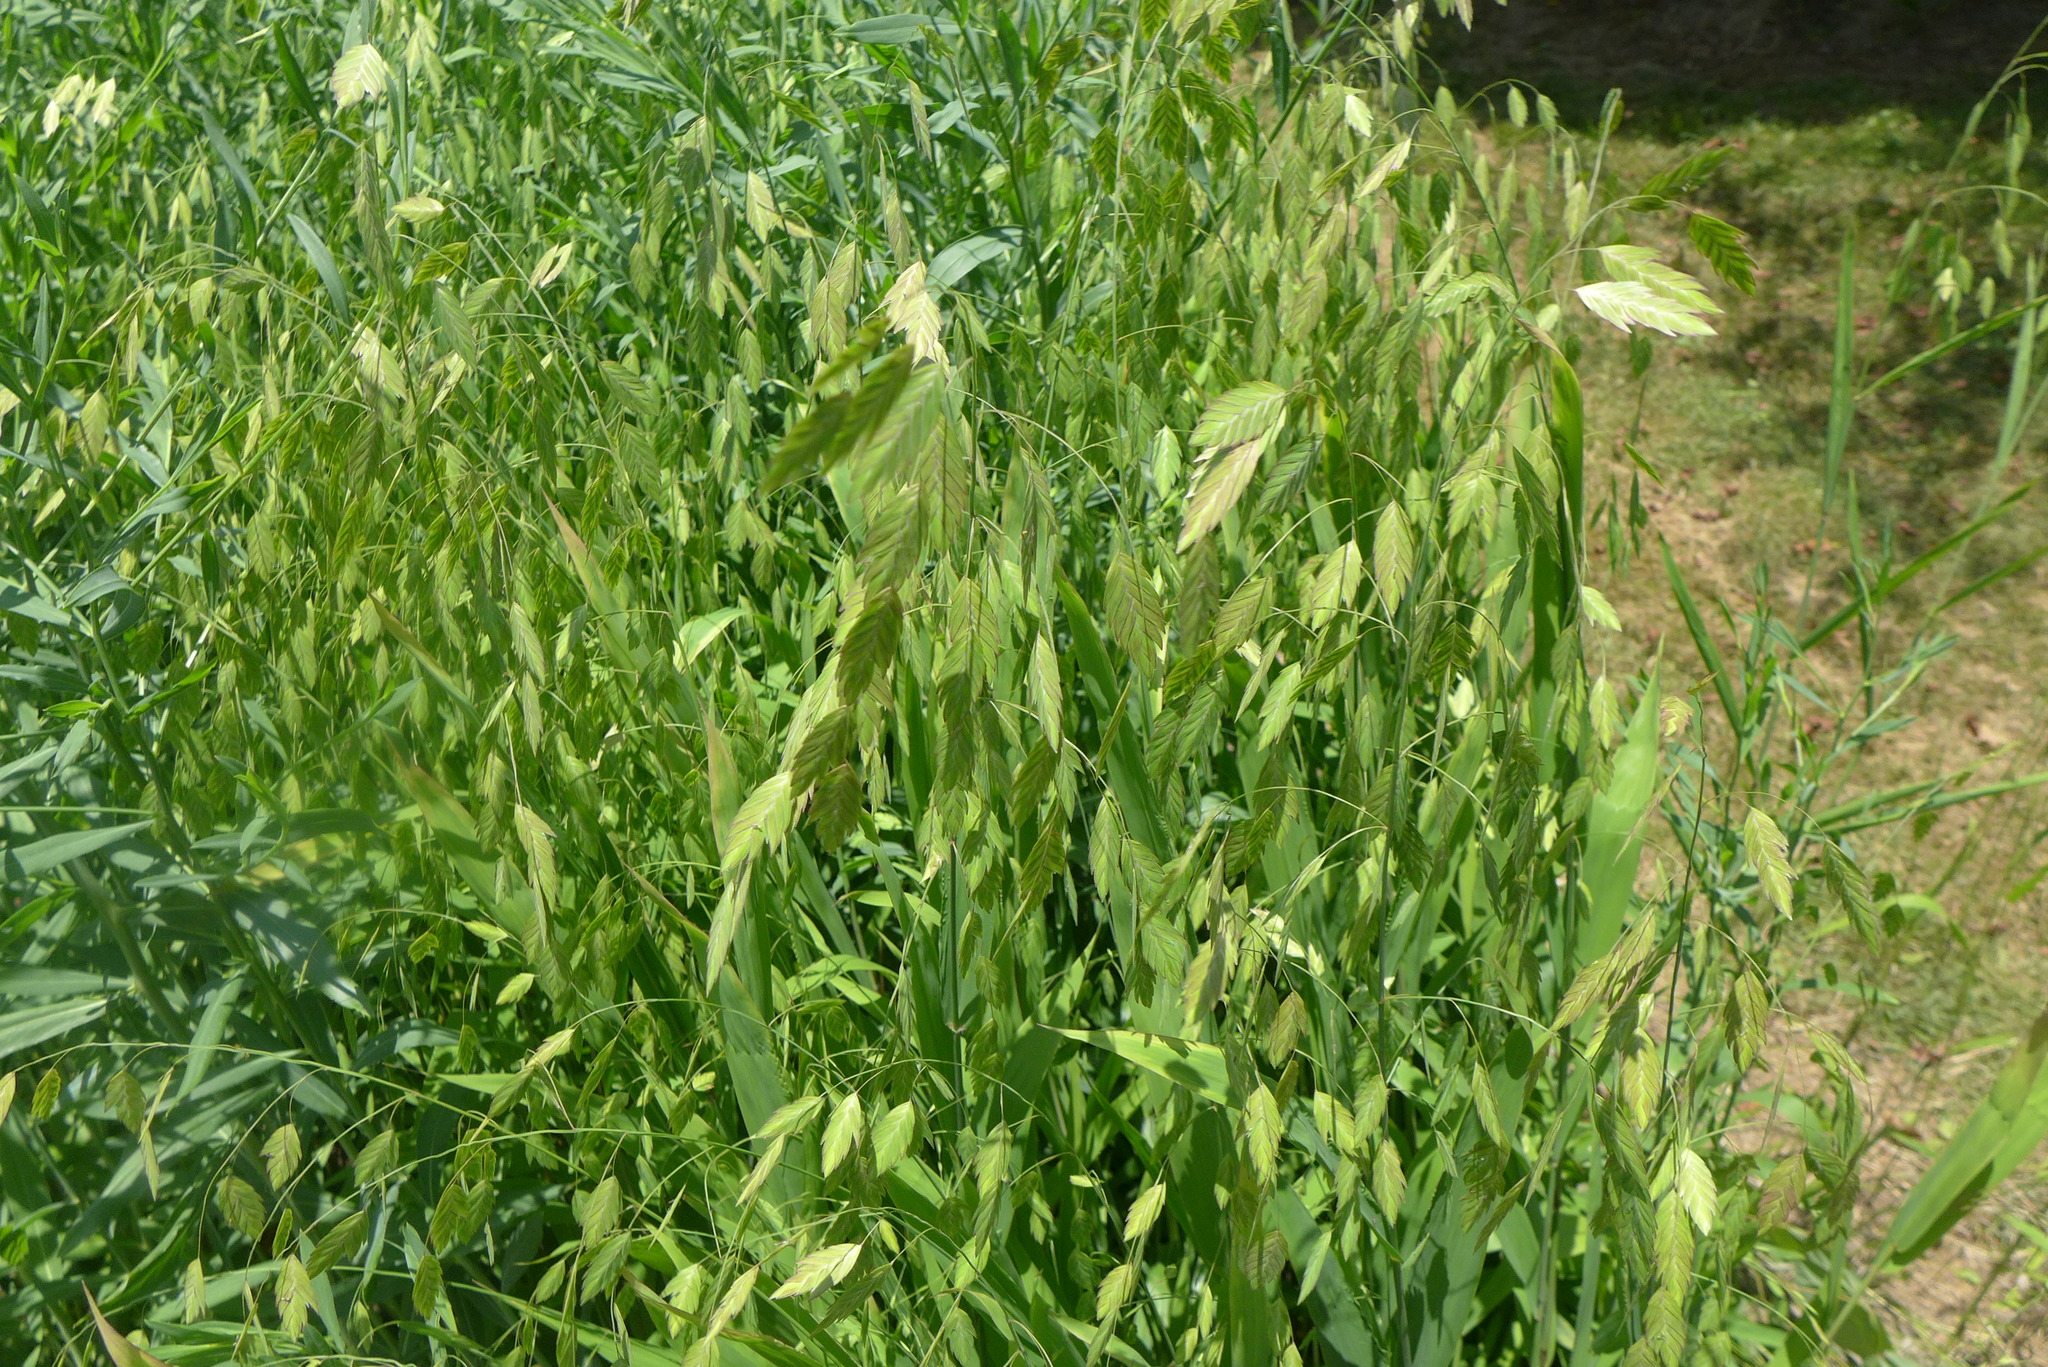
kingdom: Plantae
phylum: Tracheophyta
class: Liliopsida
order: Poales
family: Poaceae
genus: Chasmanthium
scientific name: Chasmanthium latifolium
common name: Broad-leaved chasmanthium
